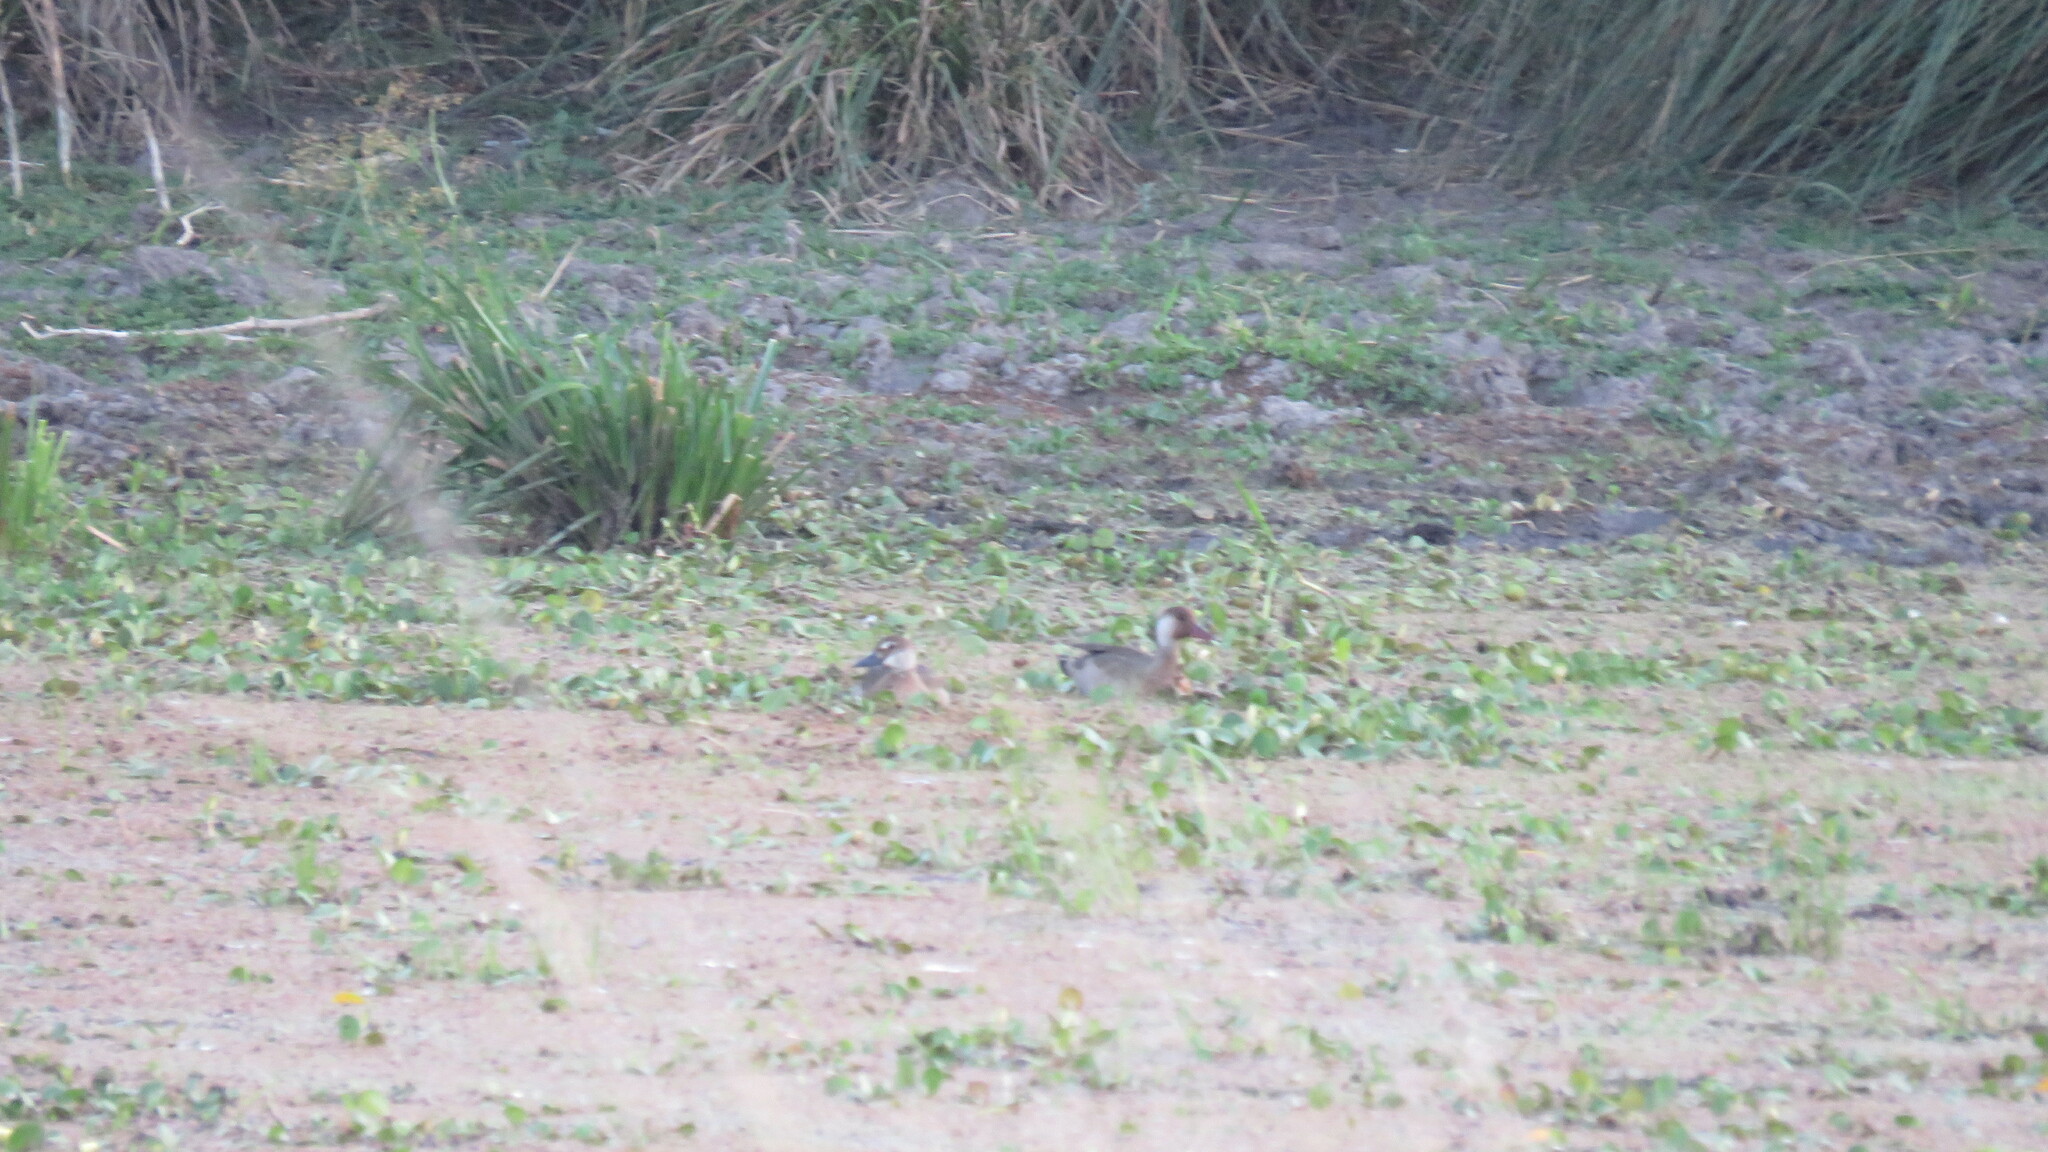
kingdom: Animalia
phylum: Chordata
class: Aves
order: Anseriformes
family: Anatidae
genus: Amazonetta
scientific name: Amazonetta brasiliensis
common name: Brazilian teal
